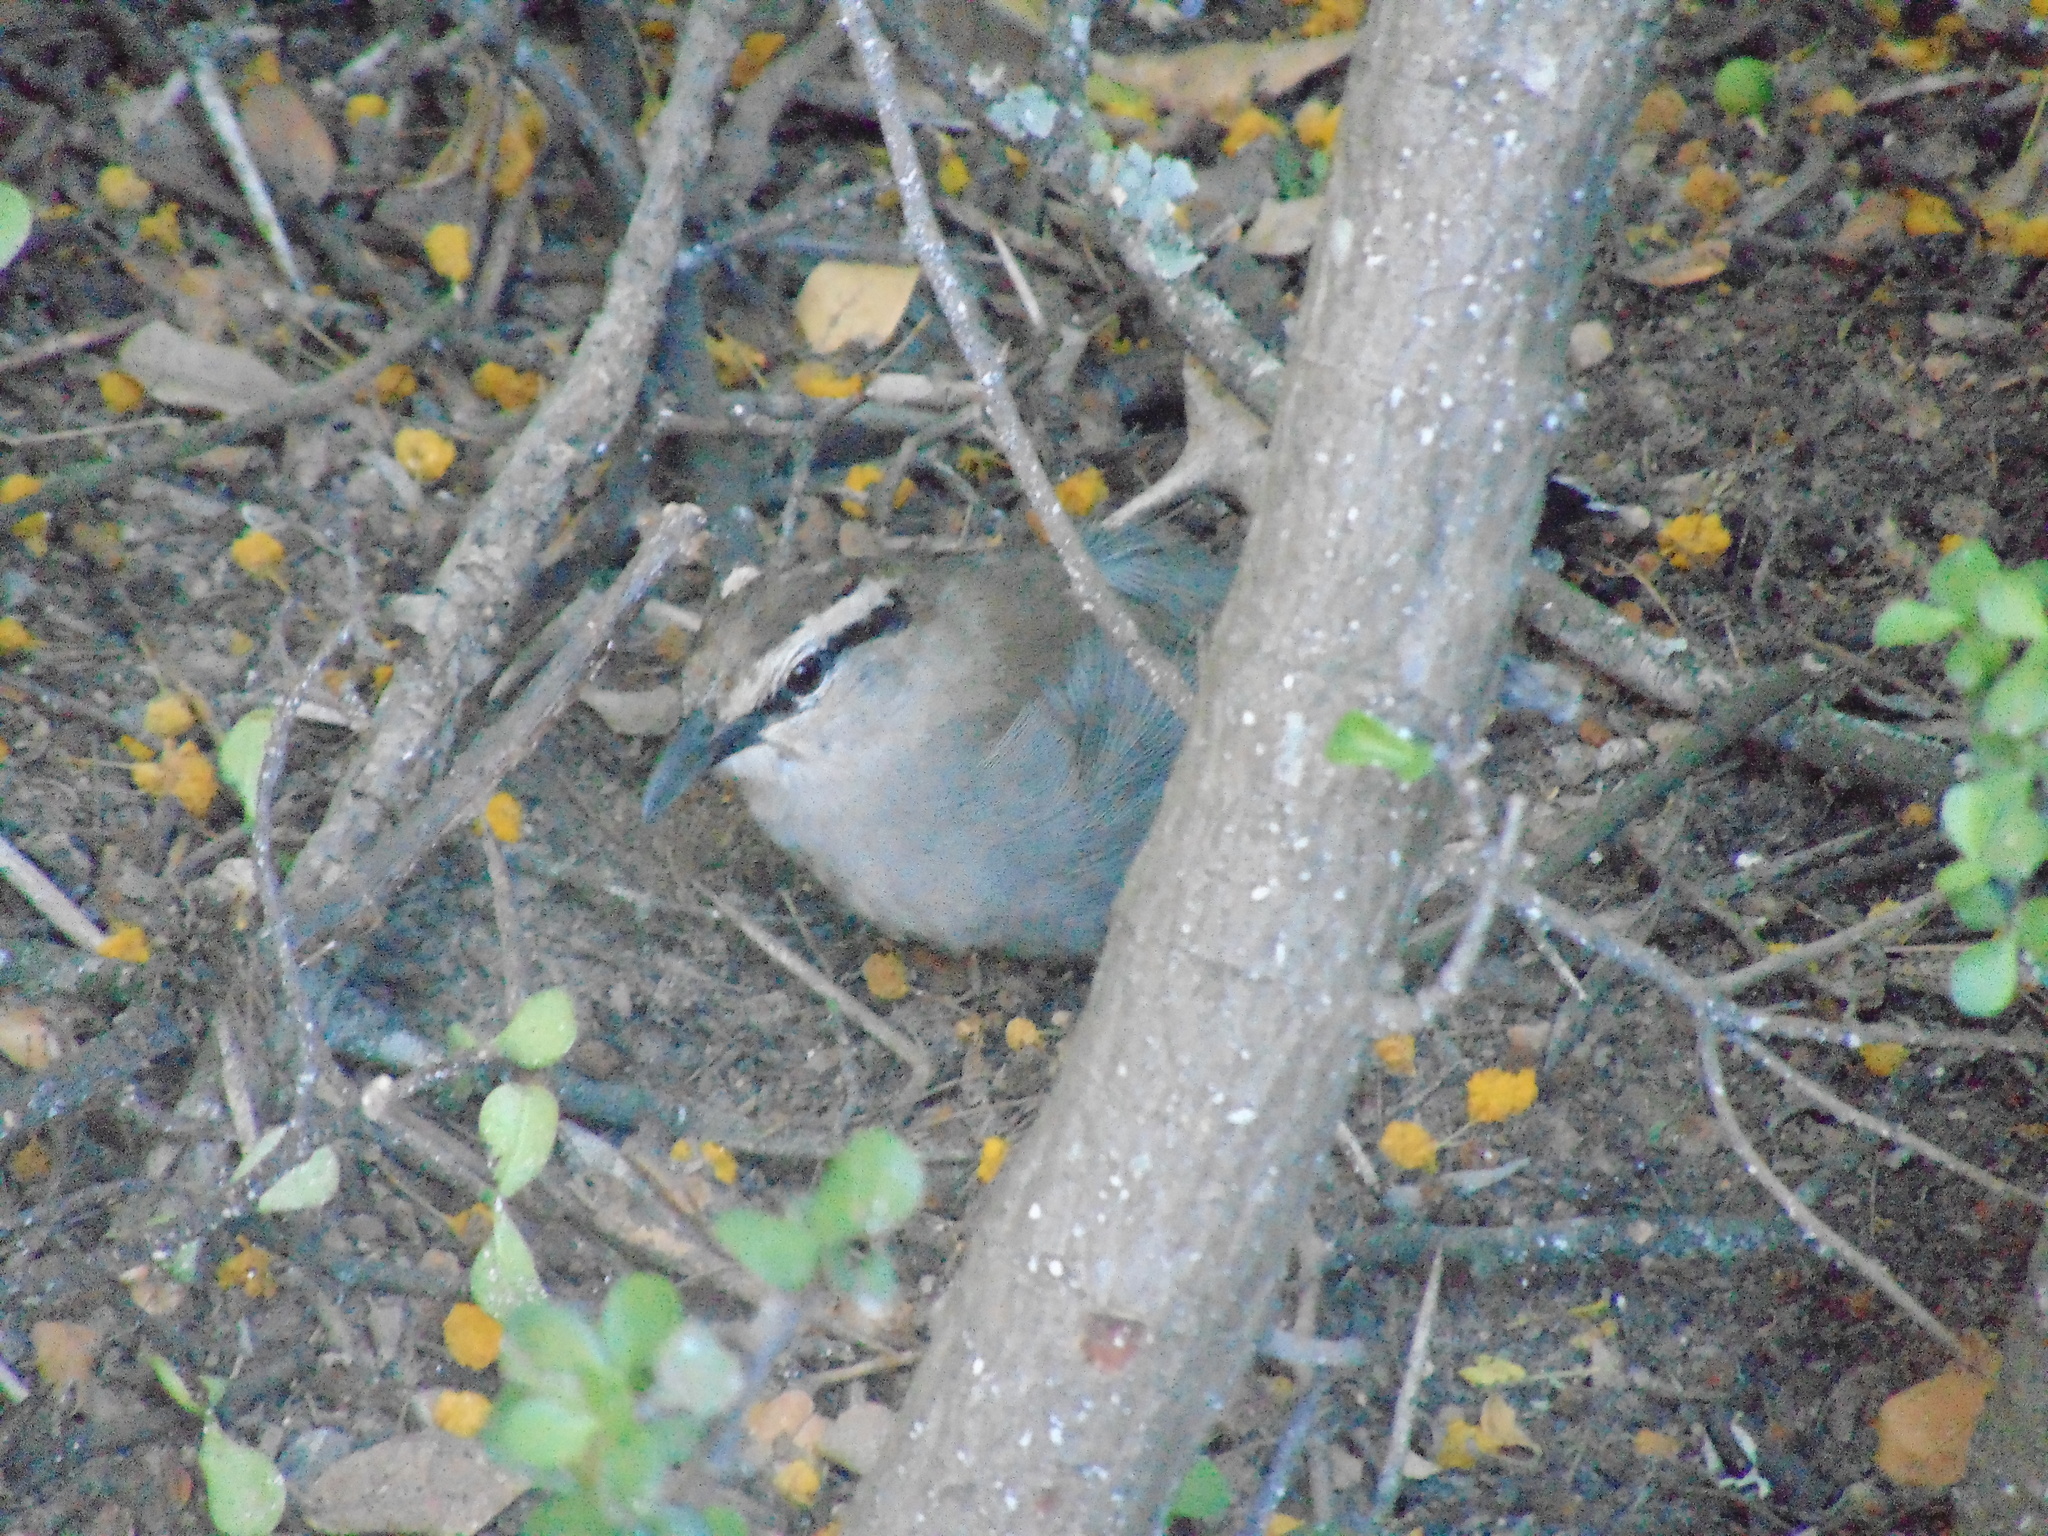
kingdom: Animalia
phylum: Chordata
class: Aves
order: Passeriformes
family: Malaconotidae
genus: Tchagra
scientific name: Tchagra tchagra
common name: Southern tchagra
